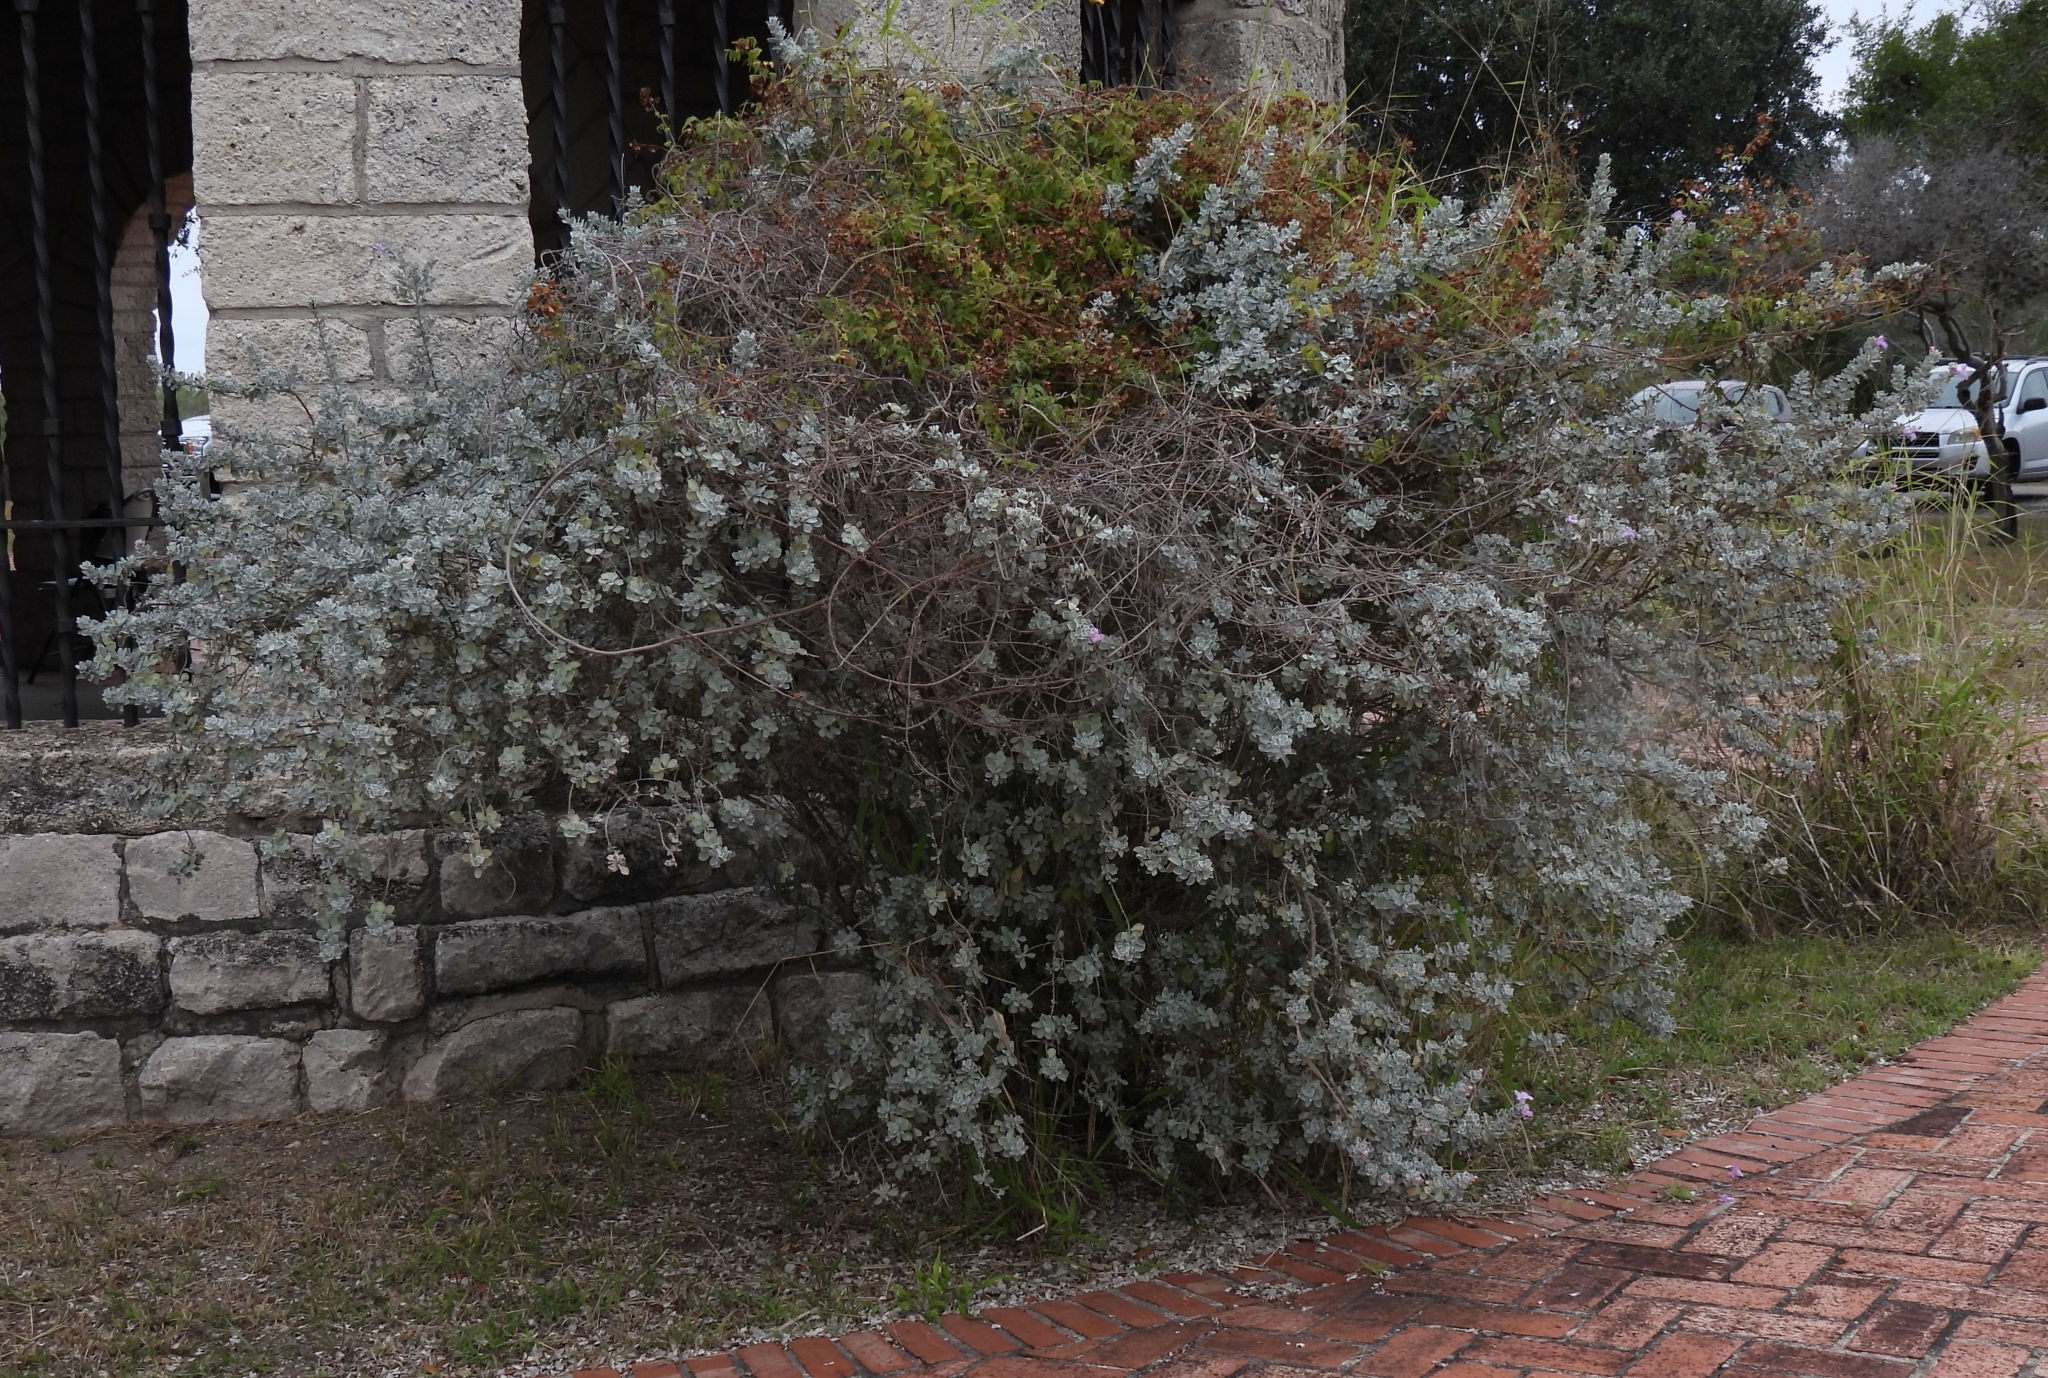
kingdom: Plantae
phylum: Tracheophyta
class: Magnoliopsida
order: Lamiales
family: Scrophulariaceae
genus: Leucophyllum
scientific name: Leucophyllum frutescens
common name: Texas silverleaf
